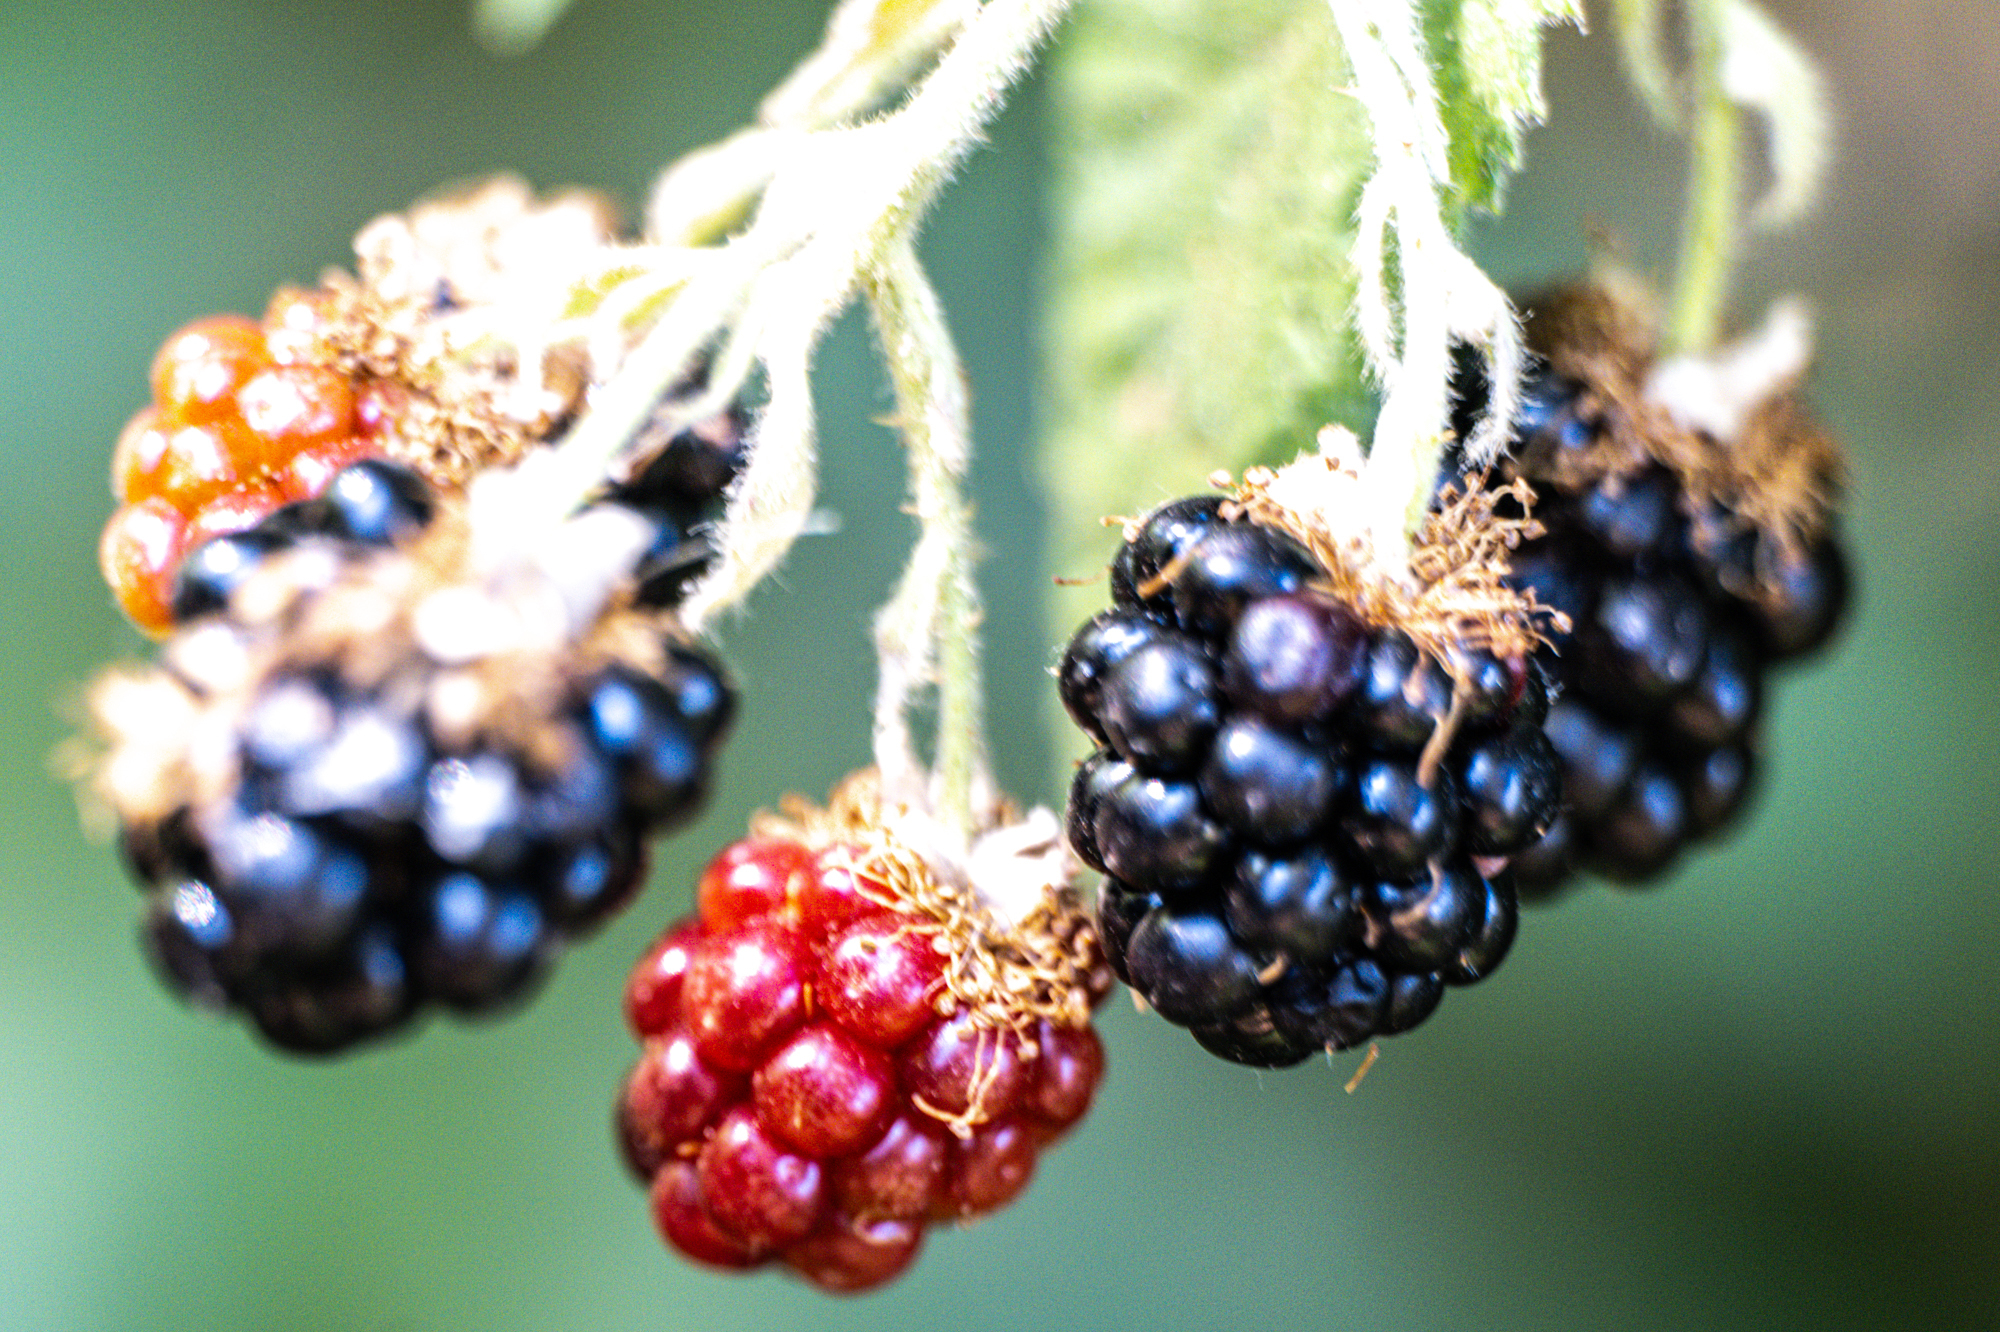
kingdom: Plantae
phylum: Tracheophyta
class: Magnoliopsida
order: Rosales
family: Rosaceae
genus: Rubus
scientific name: Rubus armeniacus
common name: Himalayan blackberry
